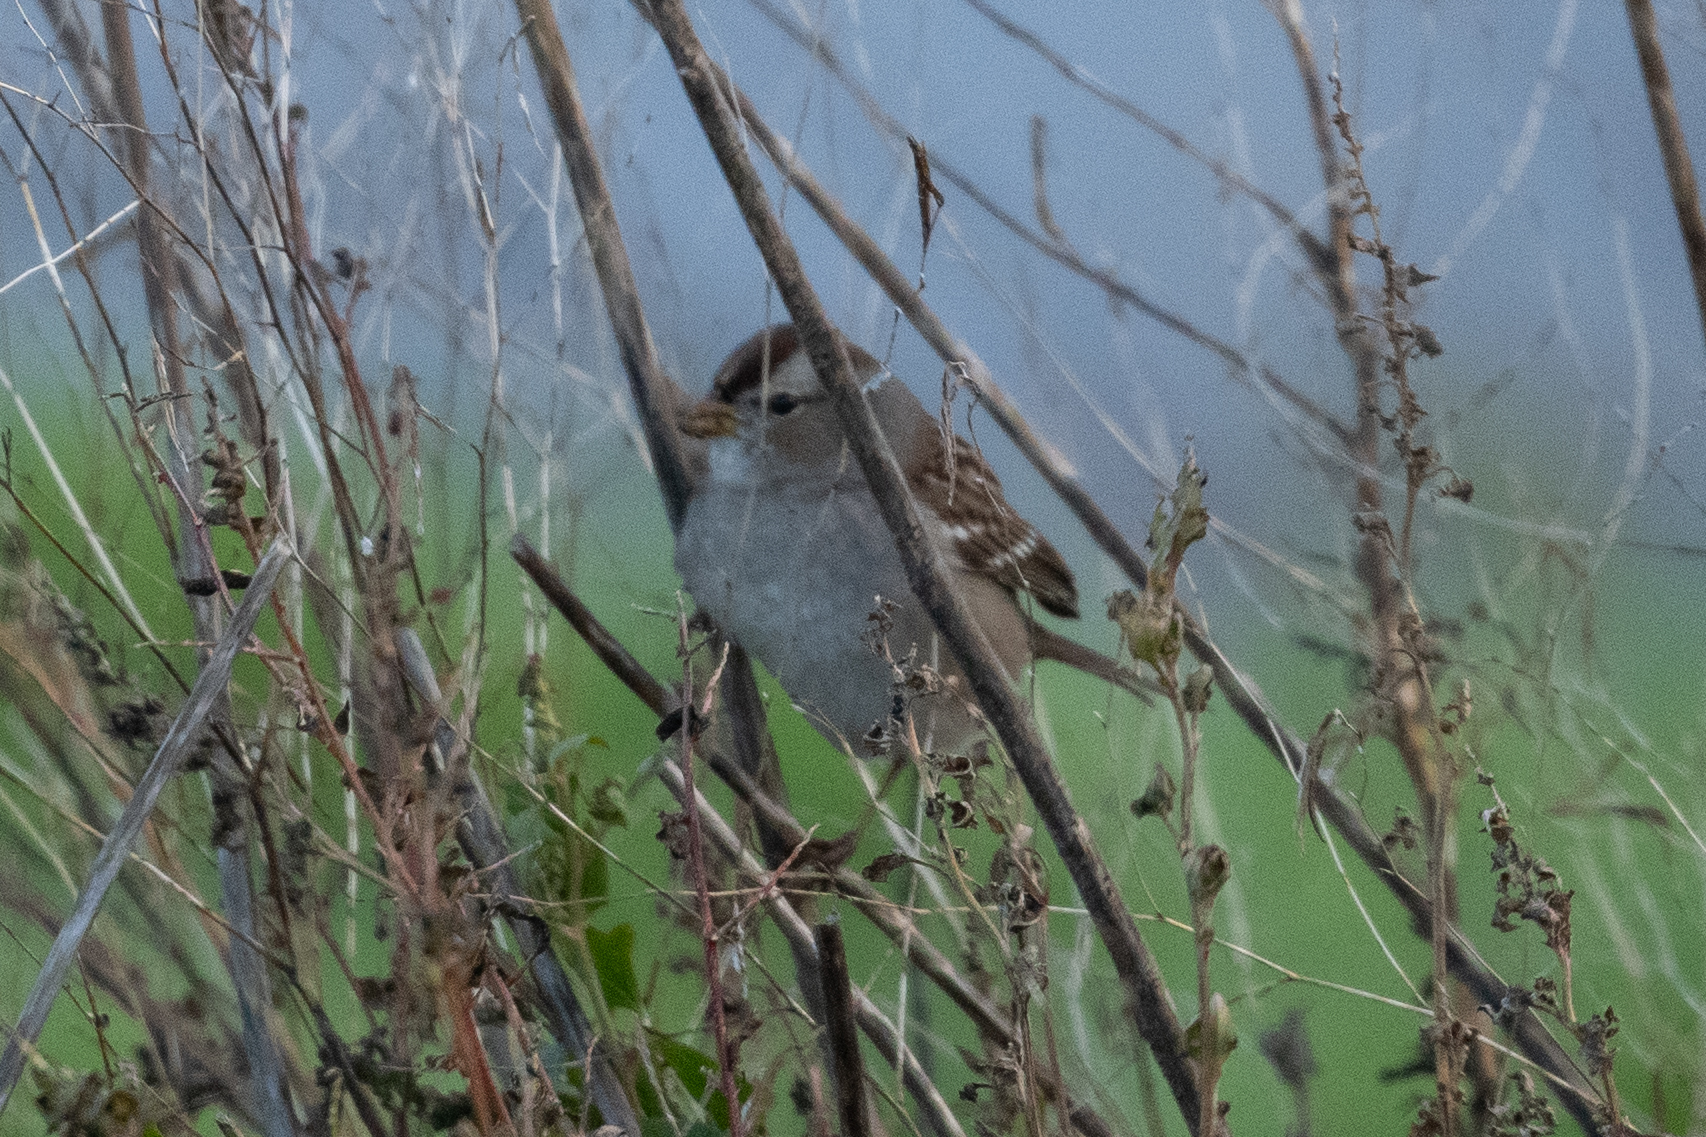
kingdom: Animalia
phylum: Chordata
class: Aves
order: Passeriformes
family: Passerellidae
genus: Zonotrichia
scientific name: Zonotrichia leucophrys
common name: White-crowned sparrow
